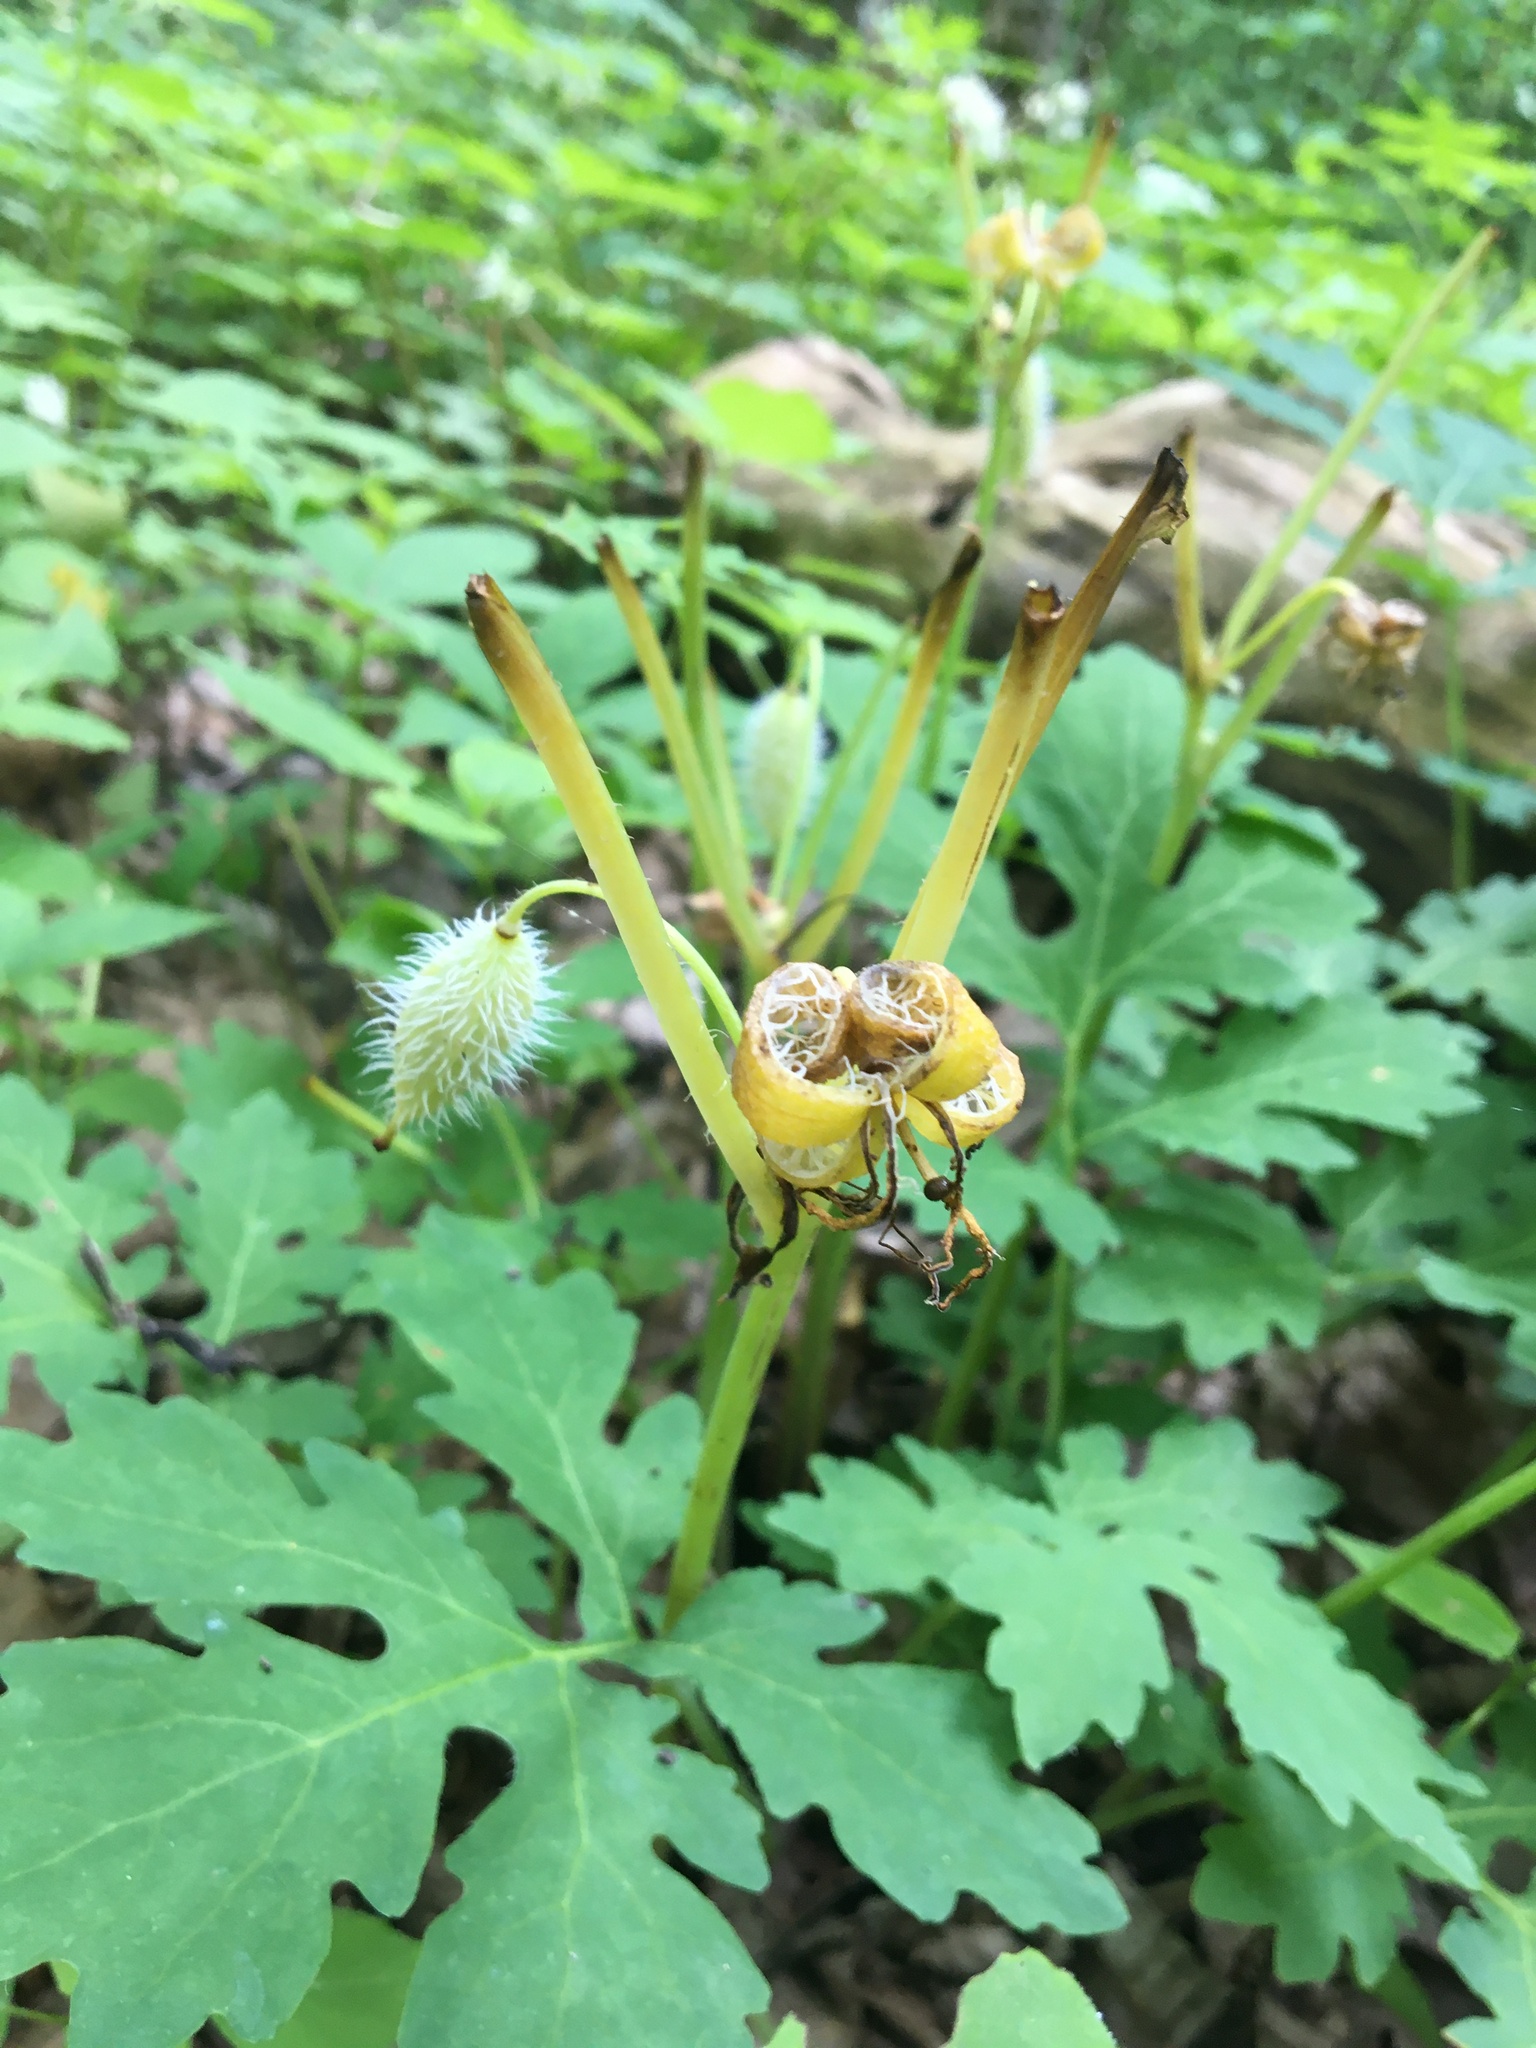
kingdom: Plantae
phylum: Tracheophyta
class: Magnoliopsida
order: Ranunculales
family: Papaveraceae
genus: Stylophorum
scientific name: Stylophorum diphyllum
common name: Celandine poppy
